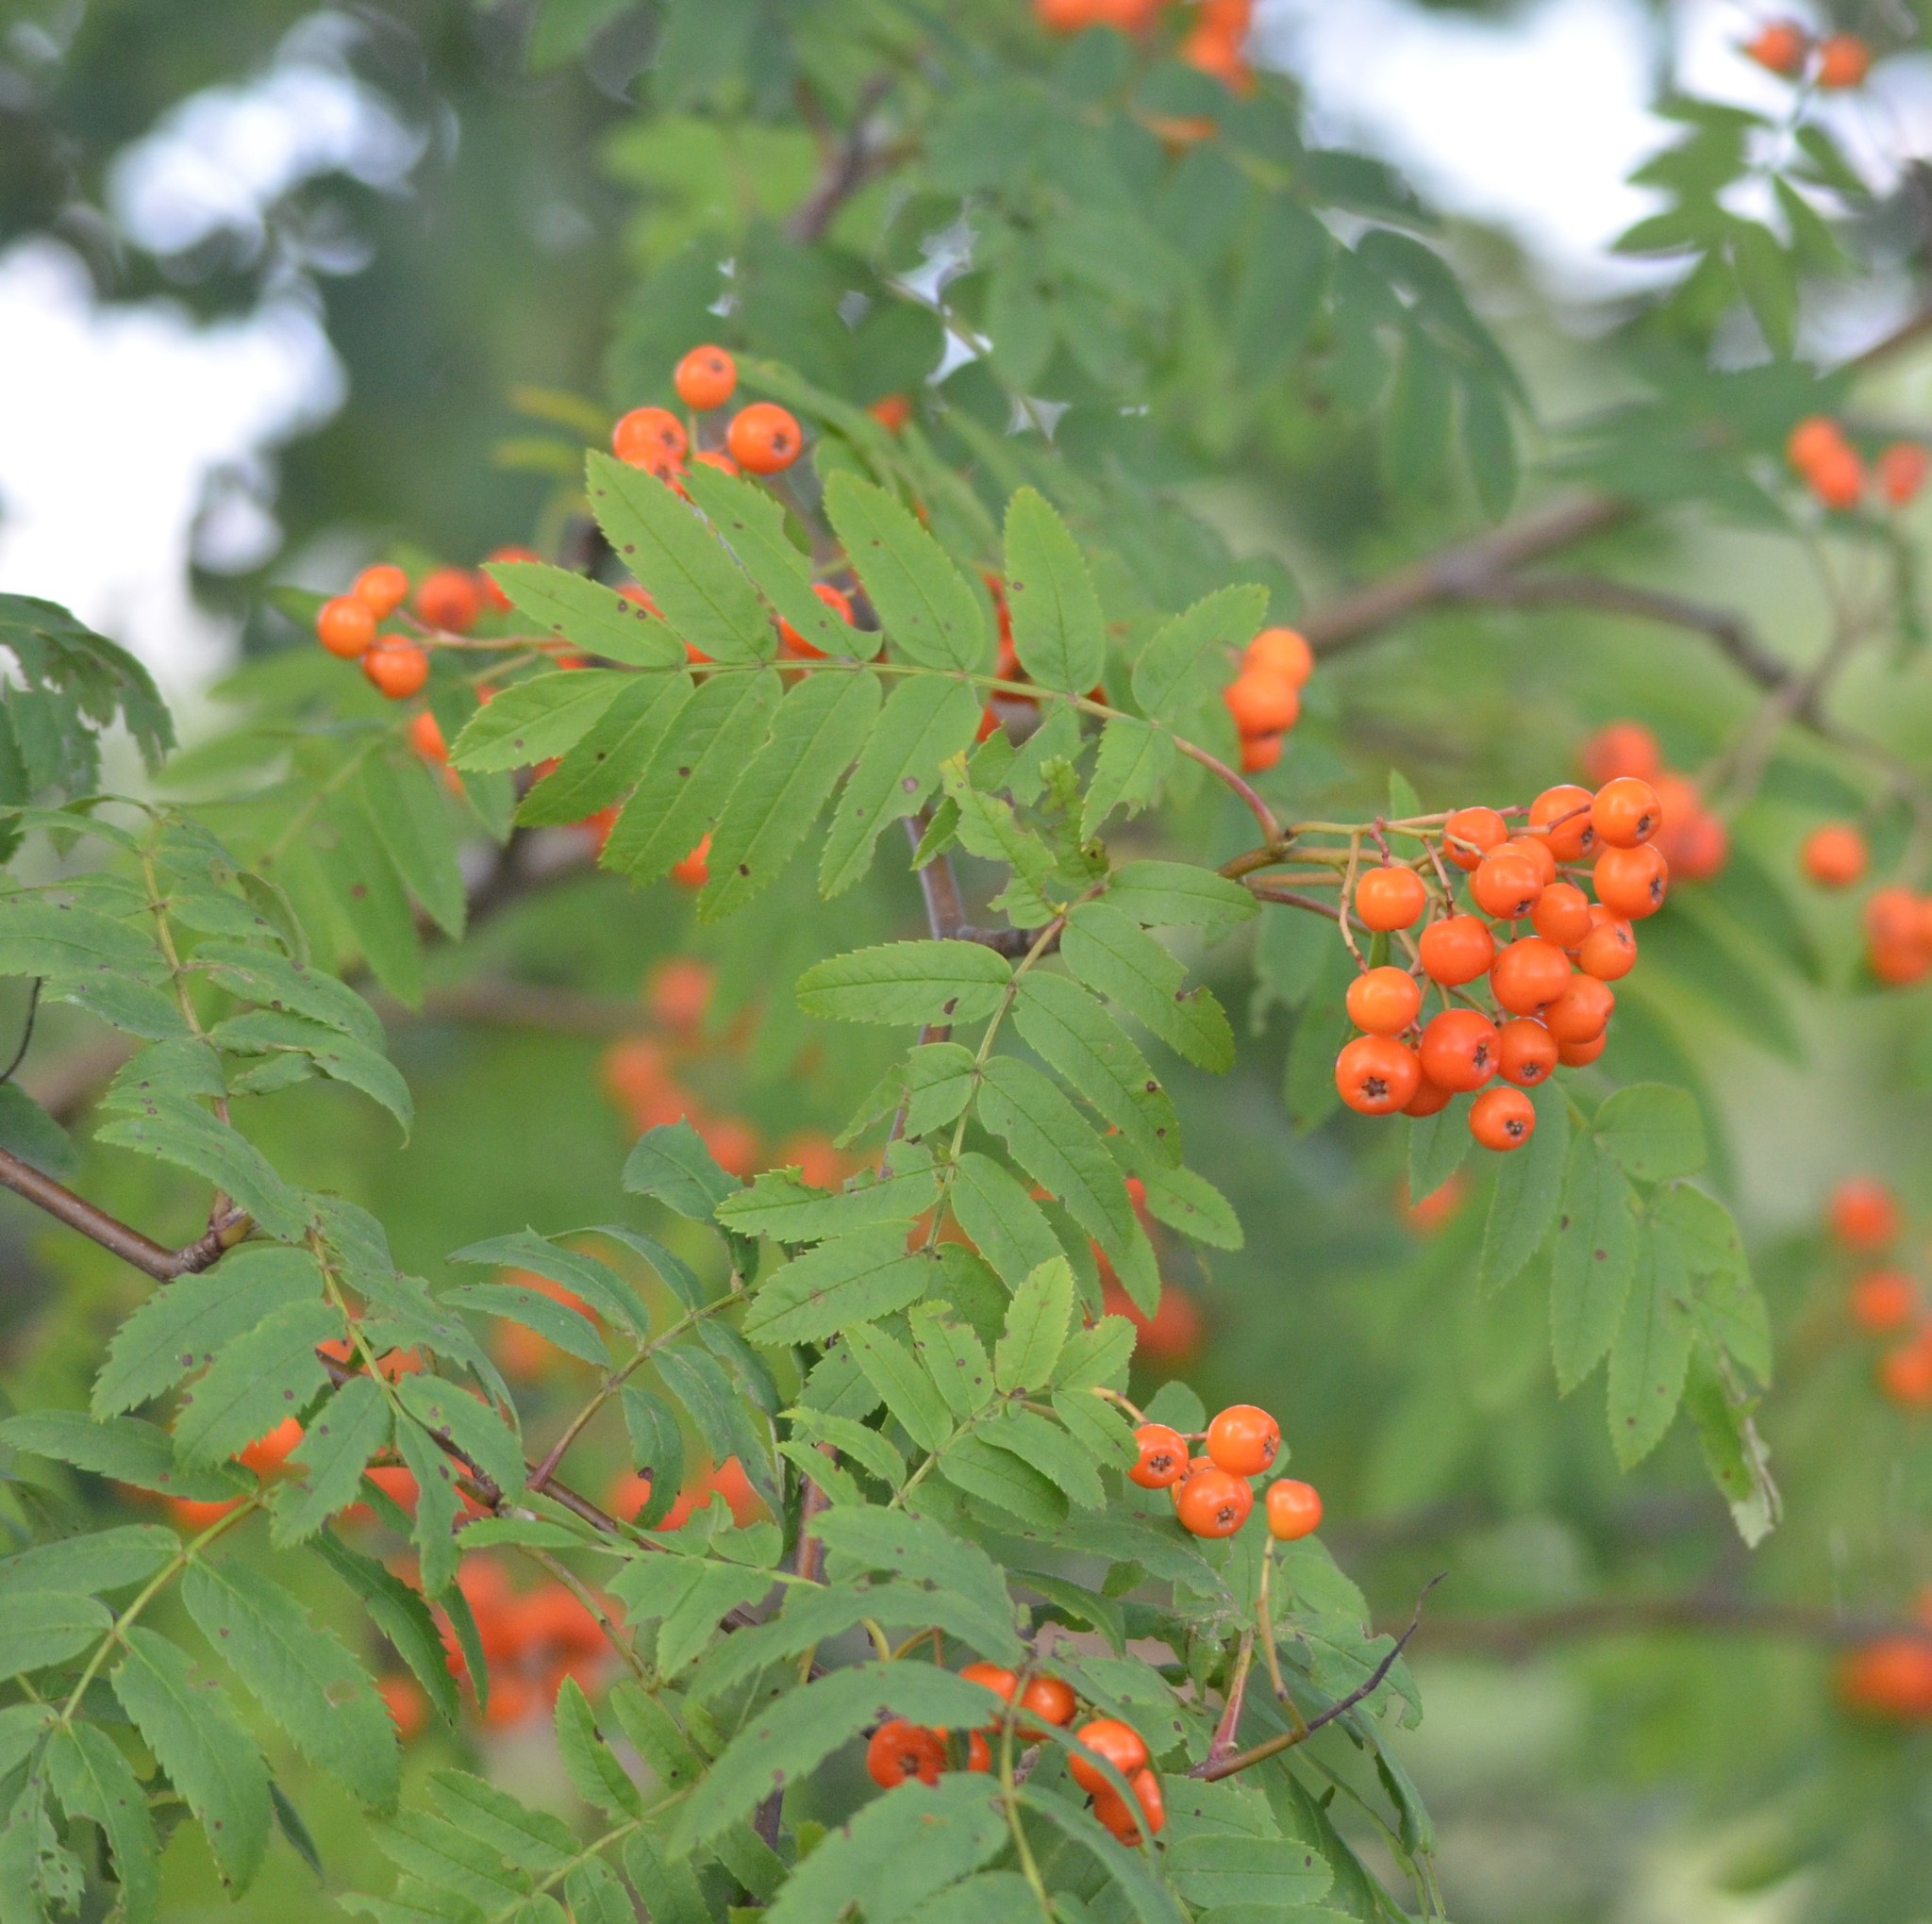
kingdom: Plantae
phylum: Tracheophyta
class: Magnoliopsida
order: Rosales
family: Rosaceae
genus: Sorbus
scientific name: Sorbus aucuparia
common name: Rowan
